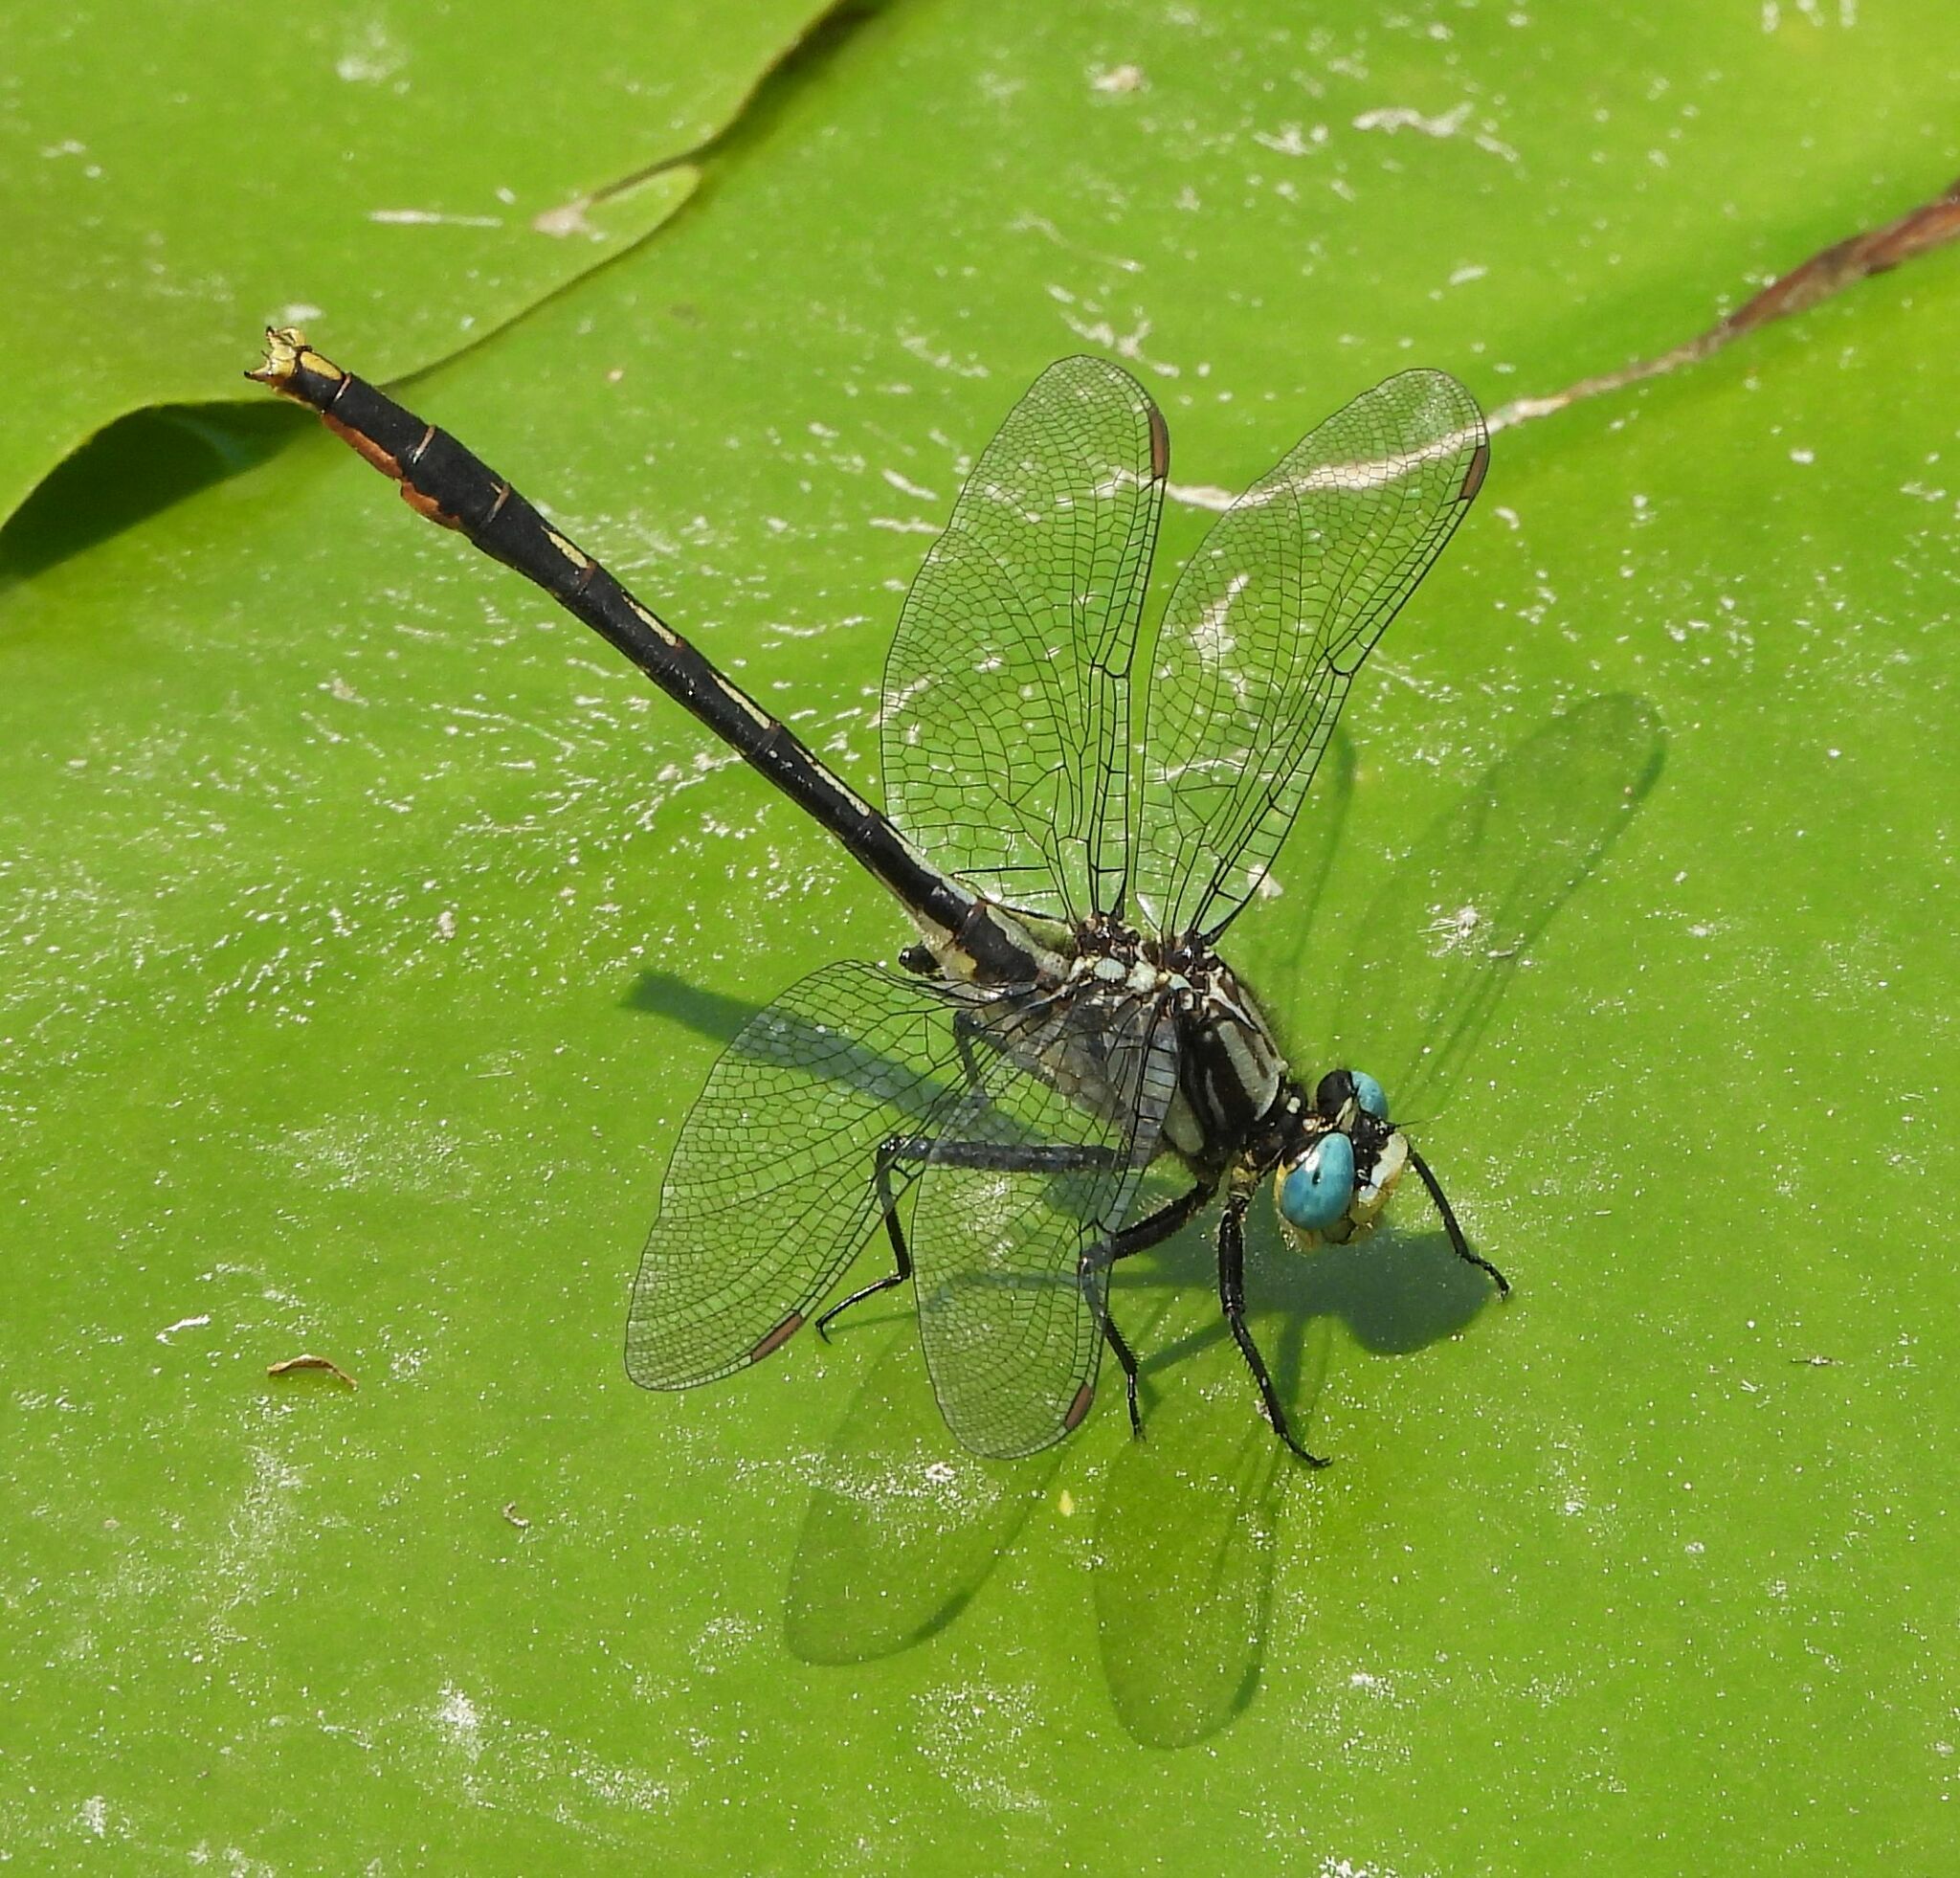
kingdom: Animalia
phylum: Arthropoda
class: Insecta
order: Odonata
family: Gomphidae
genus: Arigomphus
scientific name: Arigomphus furcifer
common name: Lilypad clubtail
